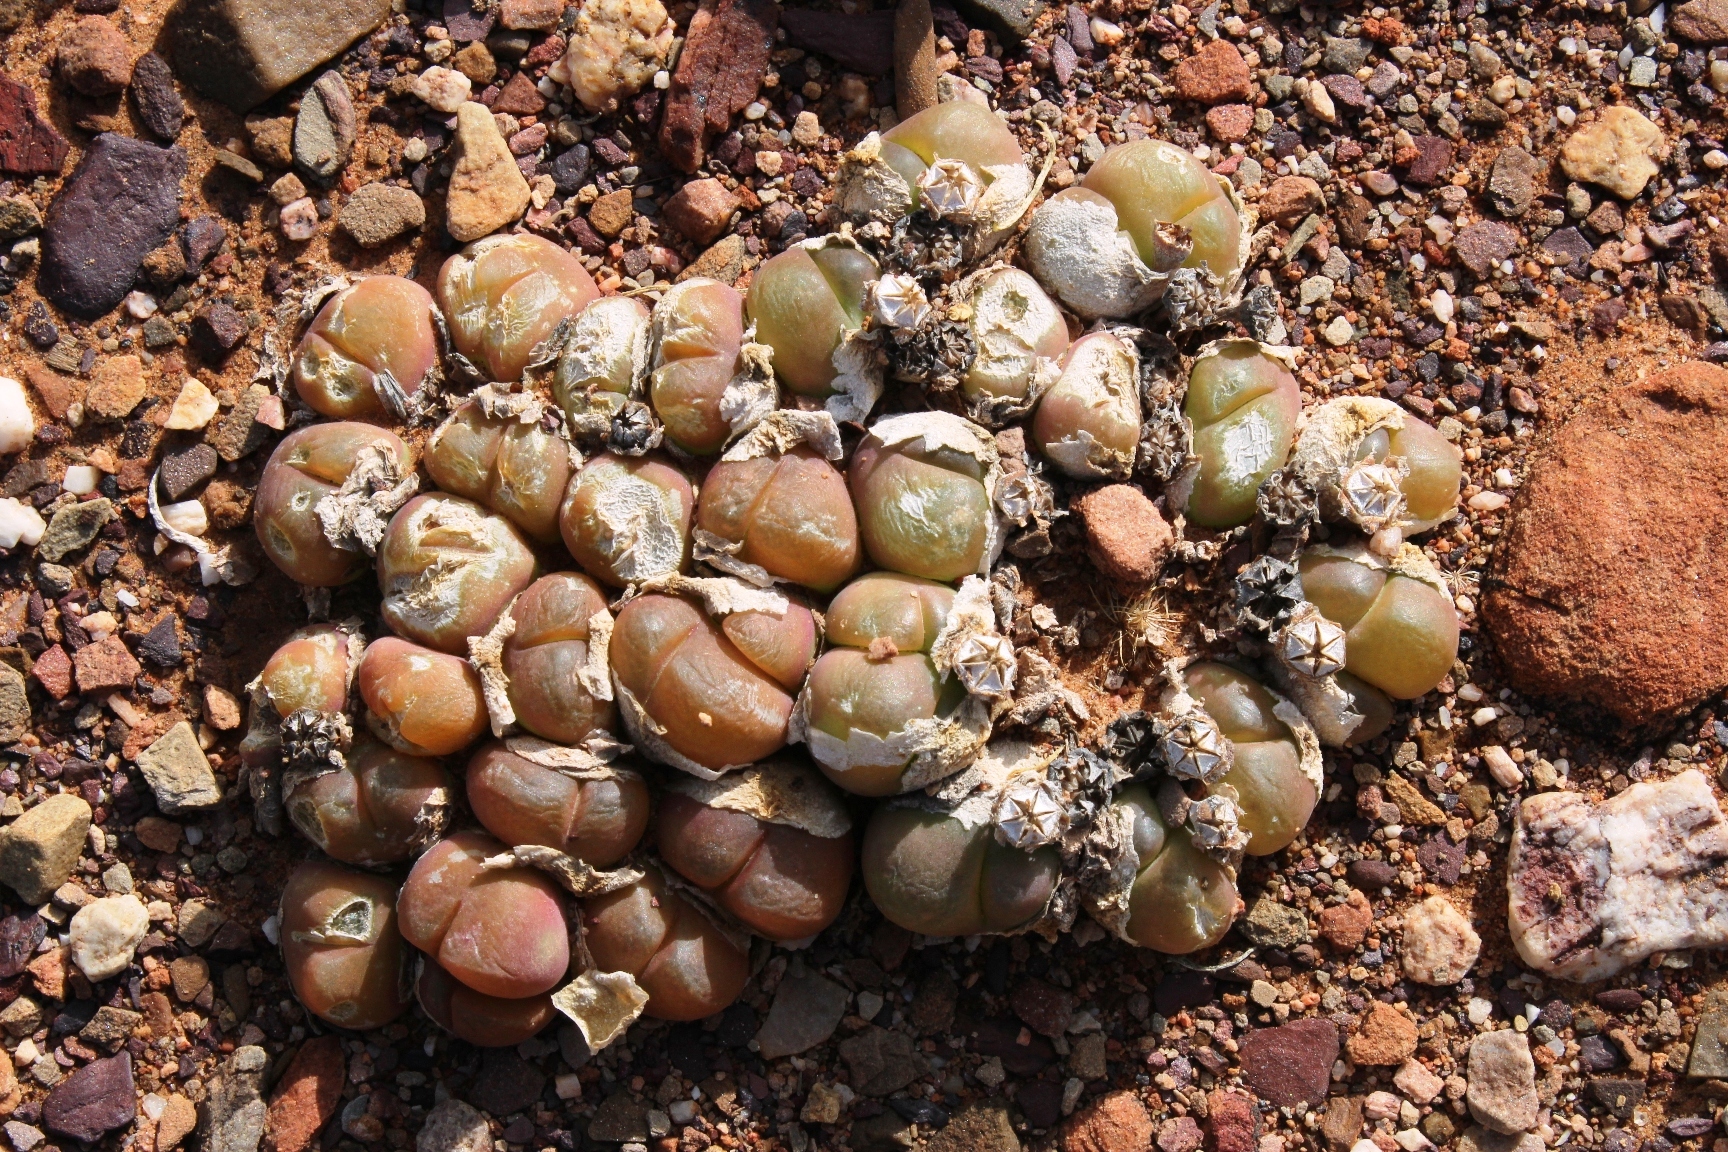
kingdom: Plantae
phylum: Tracheophyta
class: Magnoliopsida
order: Caryophyllales
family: Aizoaceae
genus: Gibbaeum
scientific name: Gibbaeum nuciforme
